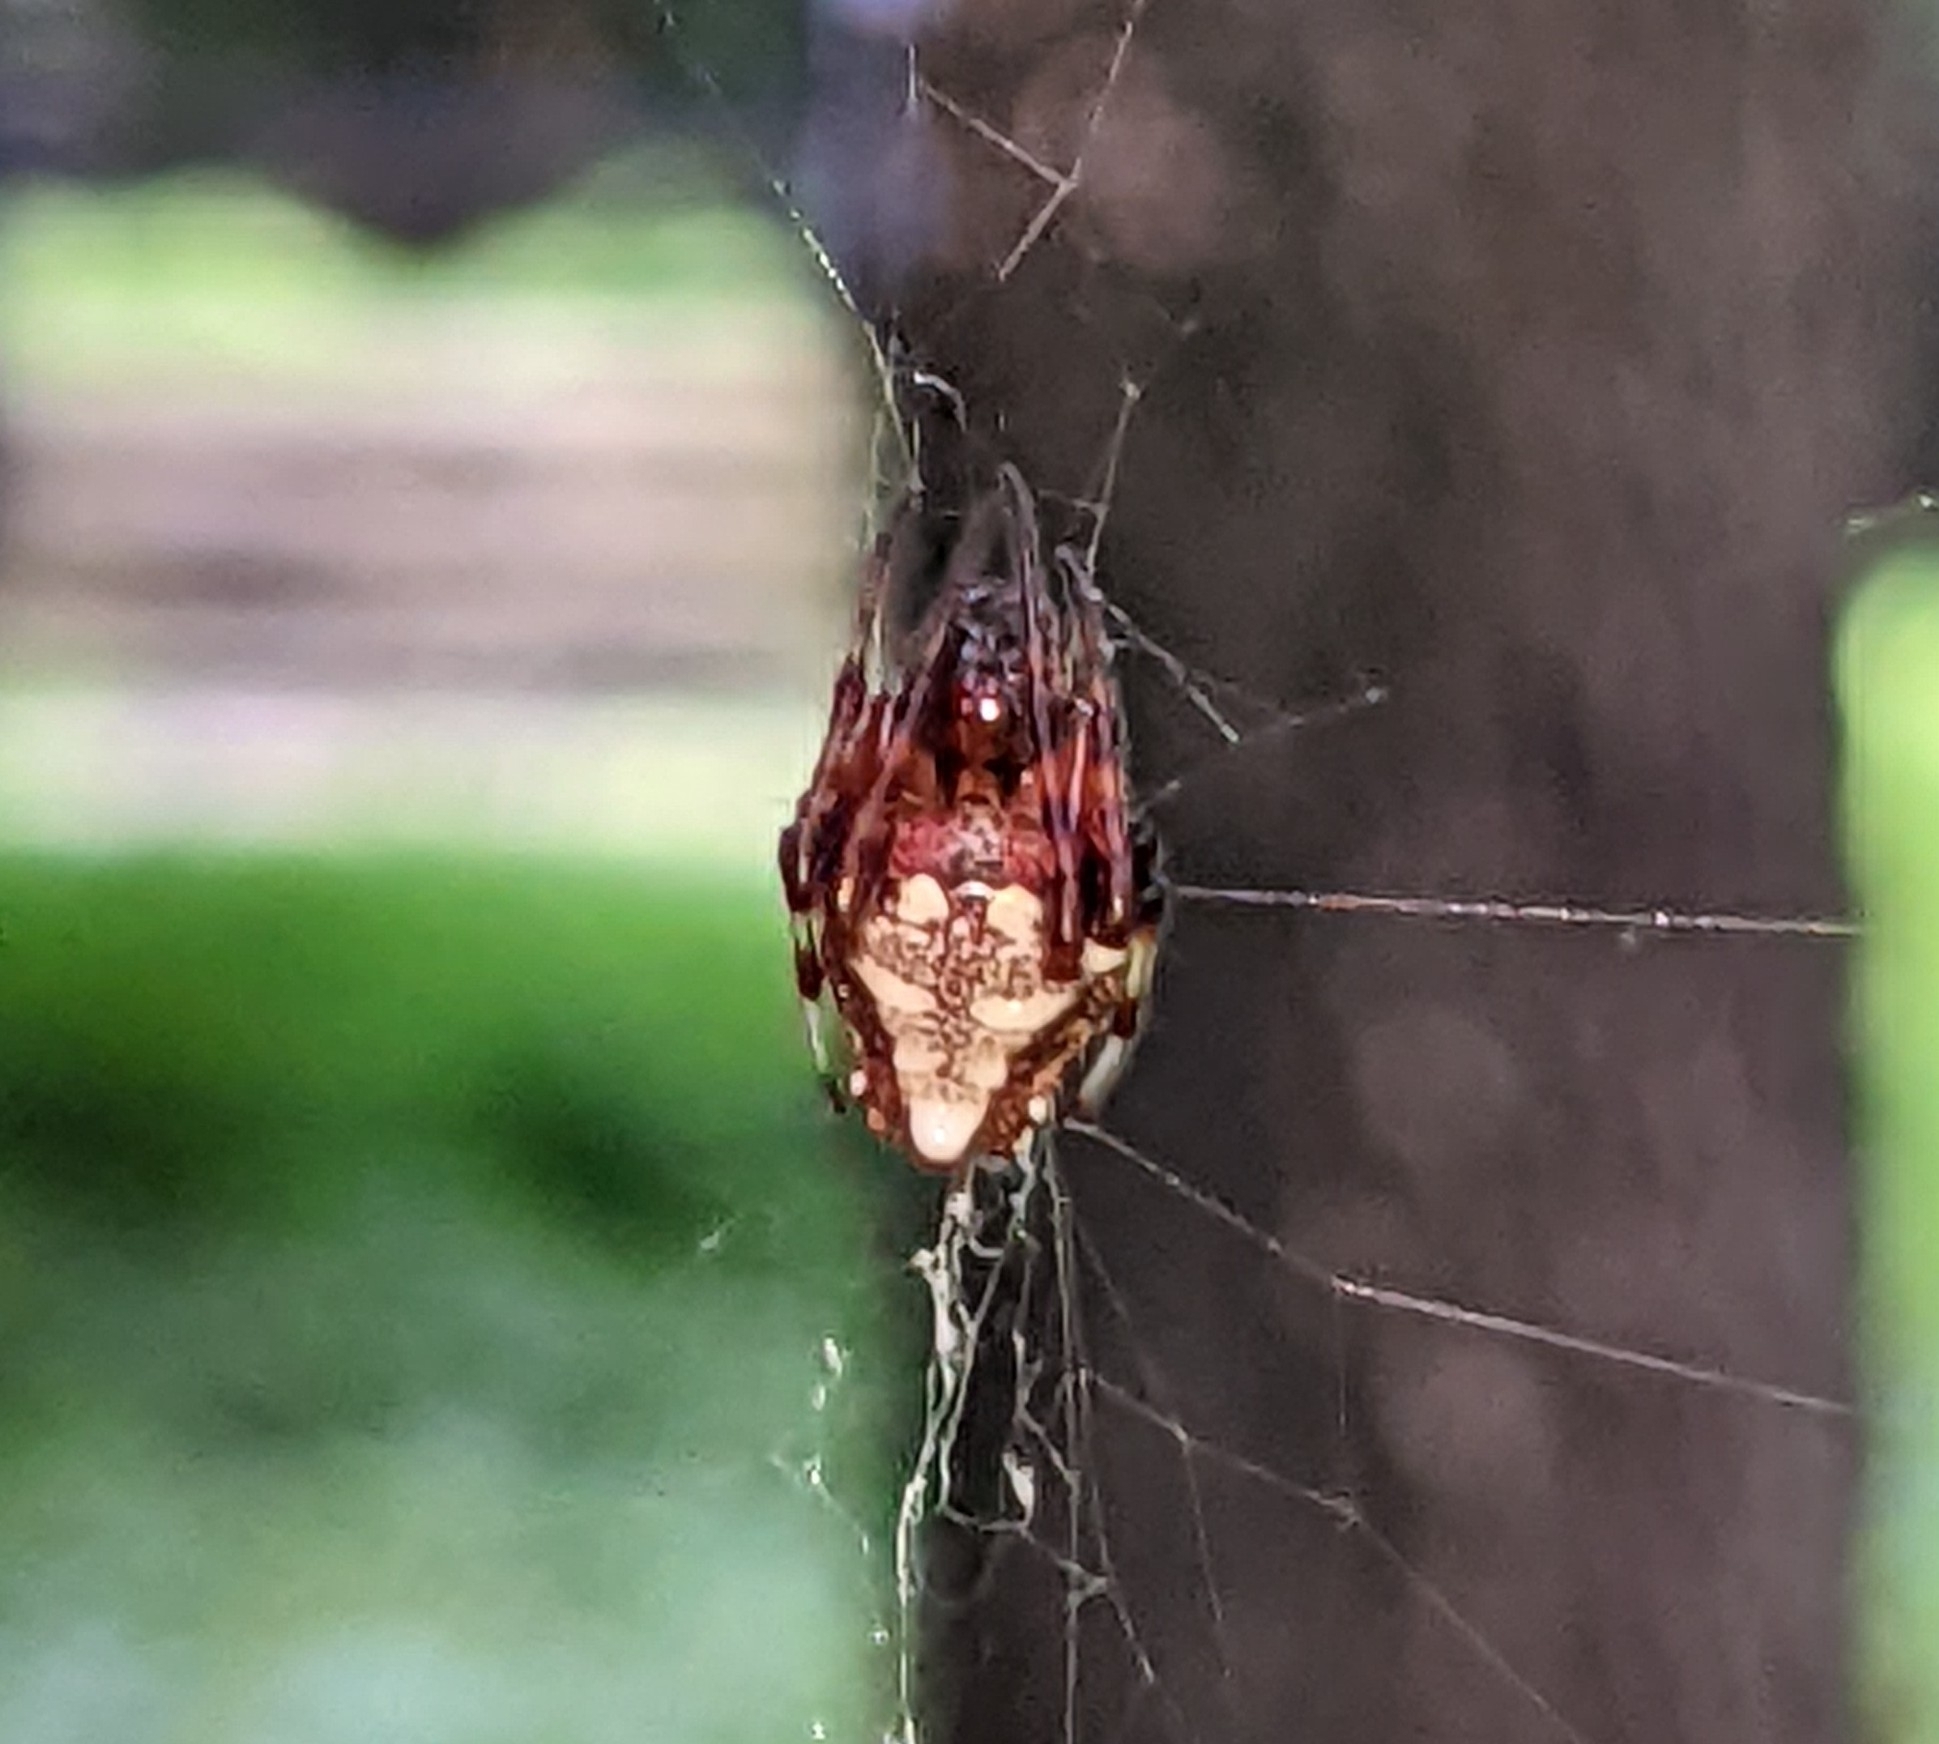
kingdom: Animalia
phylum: Arthropoda
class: Arachnida
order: Araneae
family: Araneidae
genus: Verrucosa
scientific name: Verrucosa arenata
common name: Orb weavers
